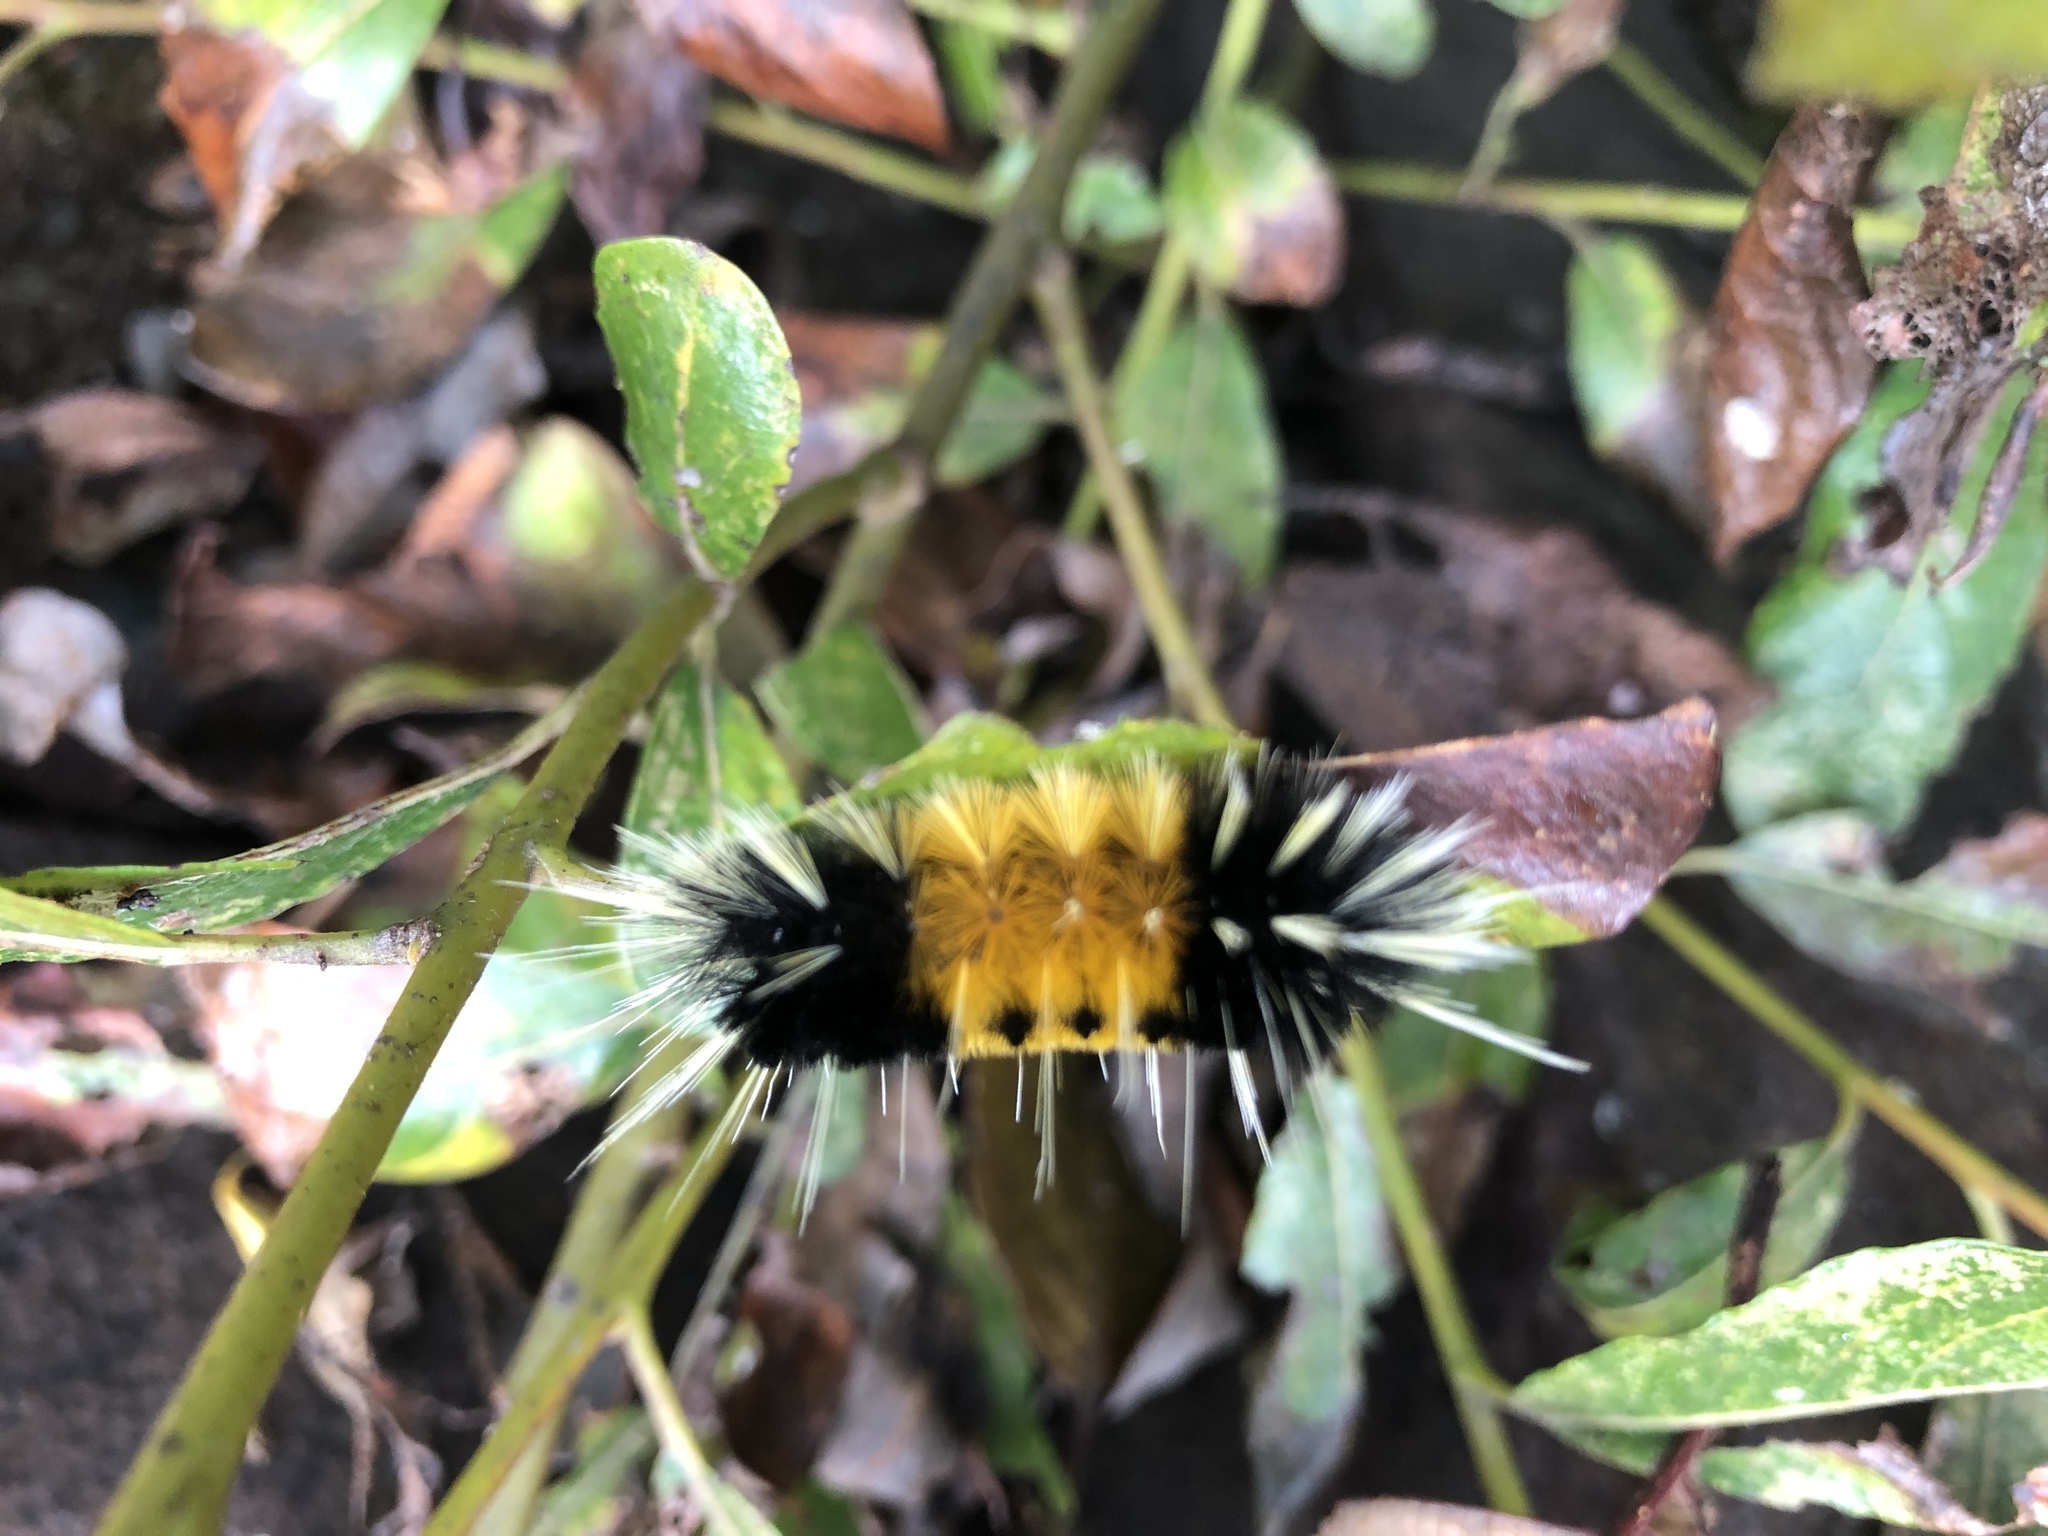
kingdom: Animalia
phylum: Arthropoda
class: Insecta
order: Lepidoptera
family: Erebidae
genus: Lophocampa
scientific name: Lophocampa maculata
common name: Spotted tussock moth
